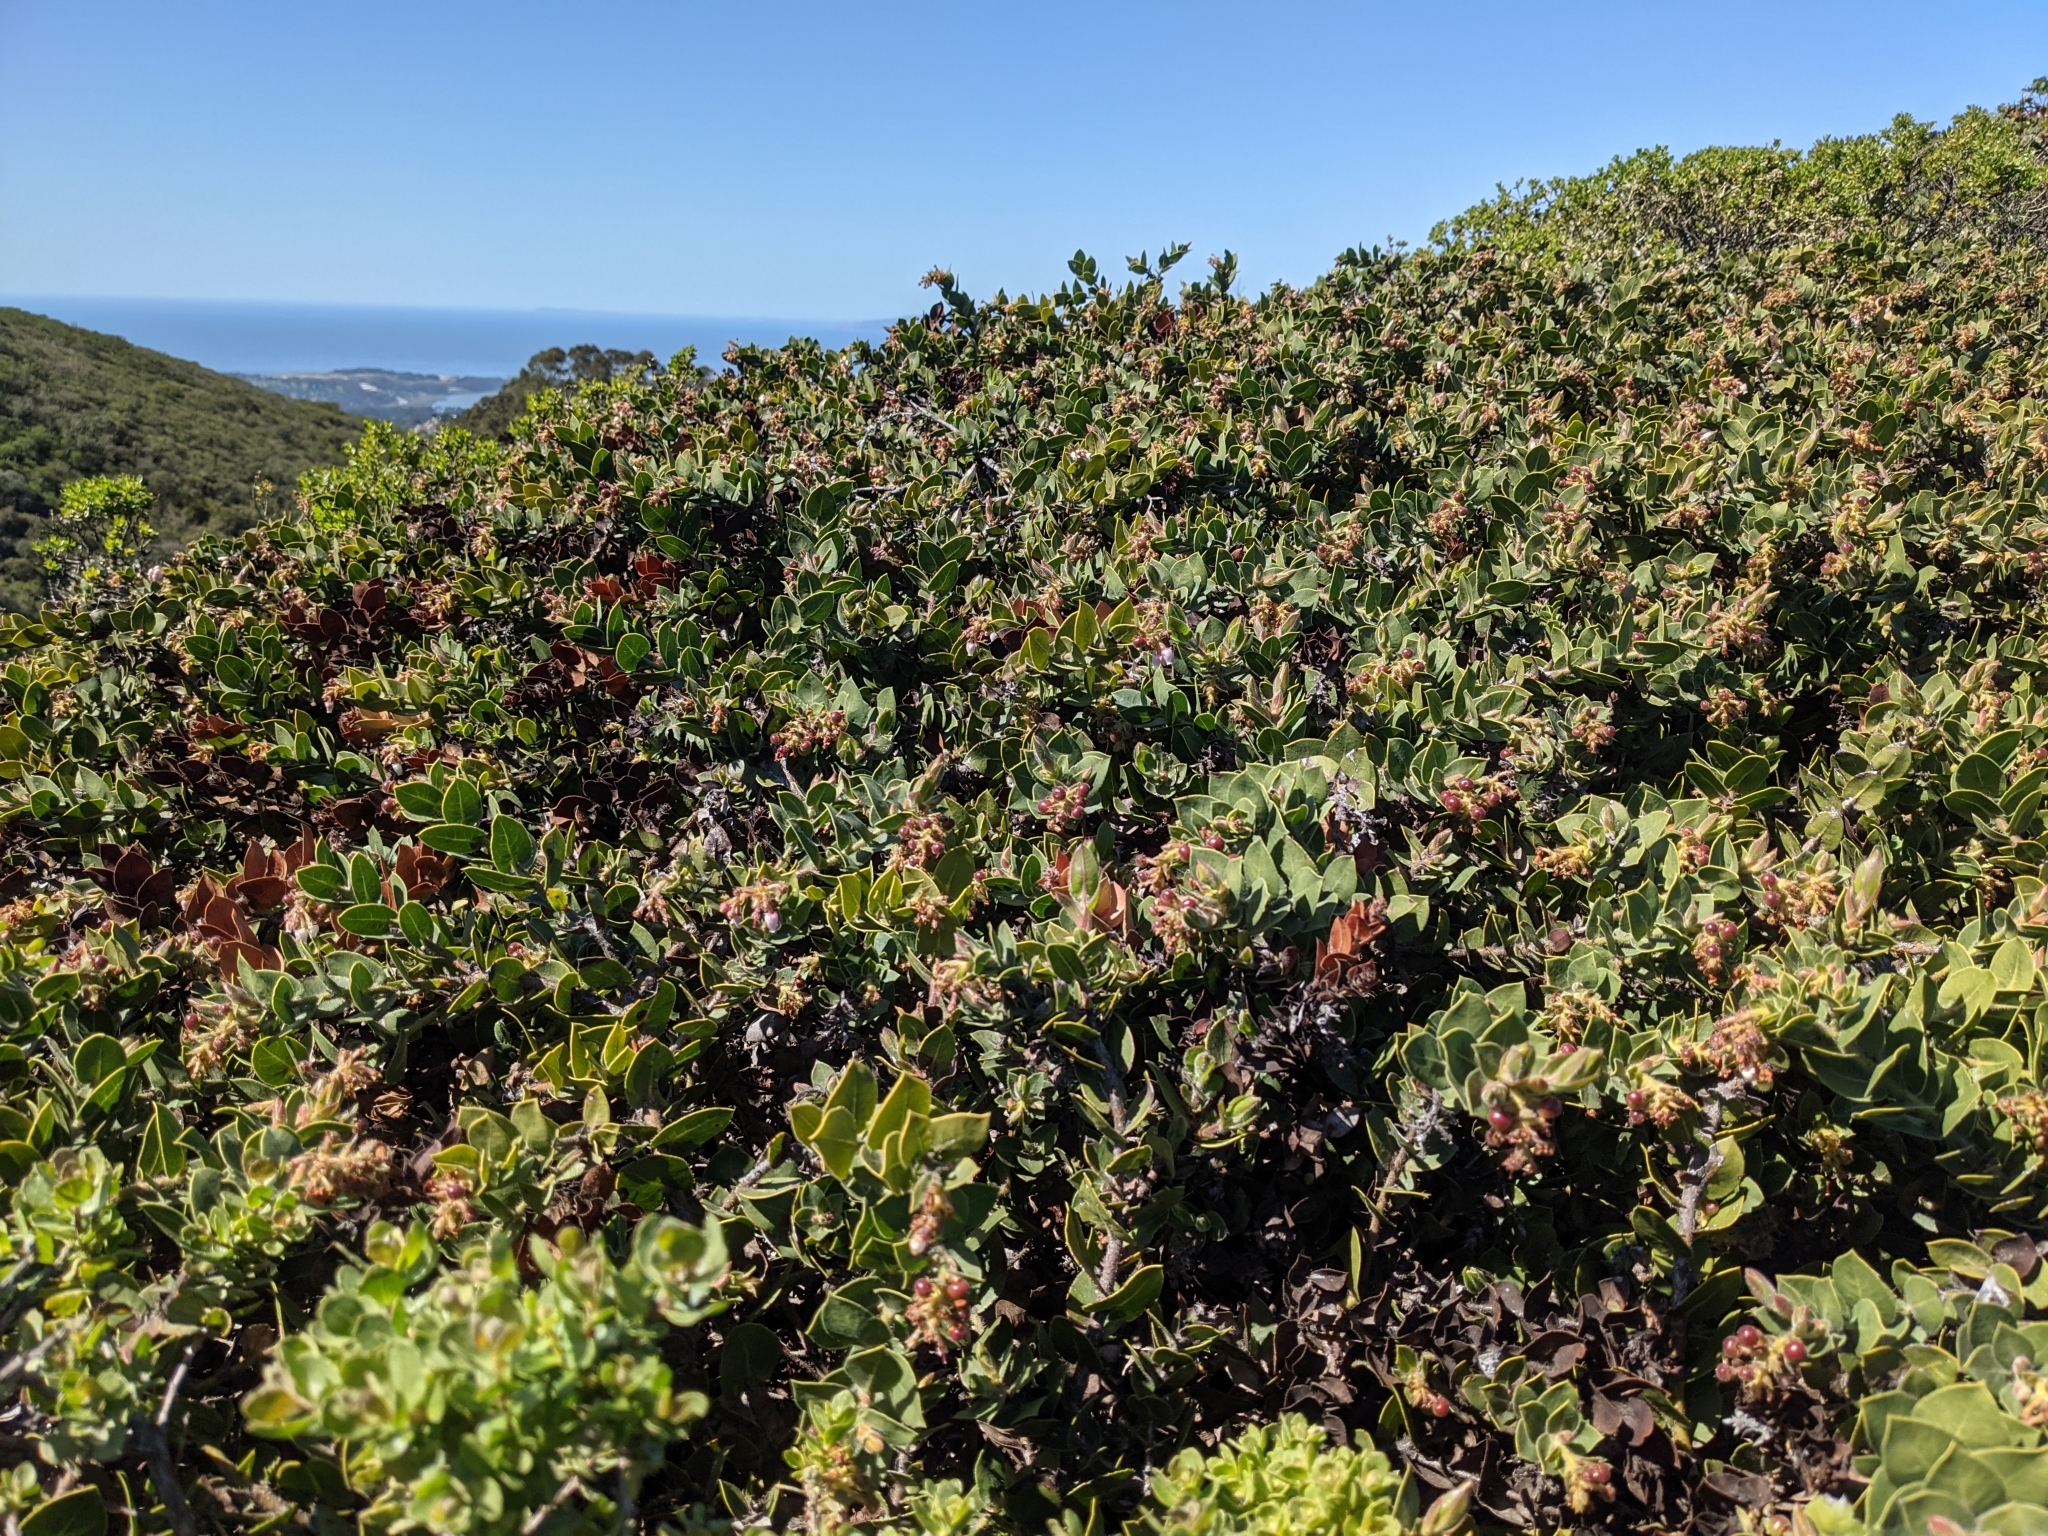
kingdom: Plantae
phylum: Tracheophyta
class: Magnoliopsida
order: Ericales
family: Ericaceae
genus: Arctostaphylos
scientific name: Arctostaphylos imbricata
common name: San bruno mountain manzanita
